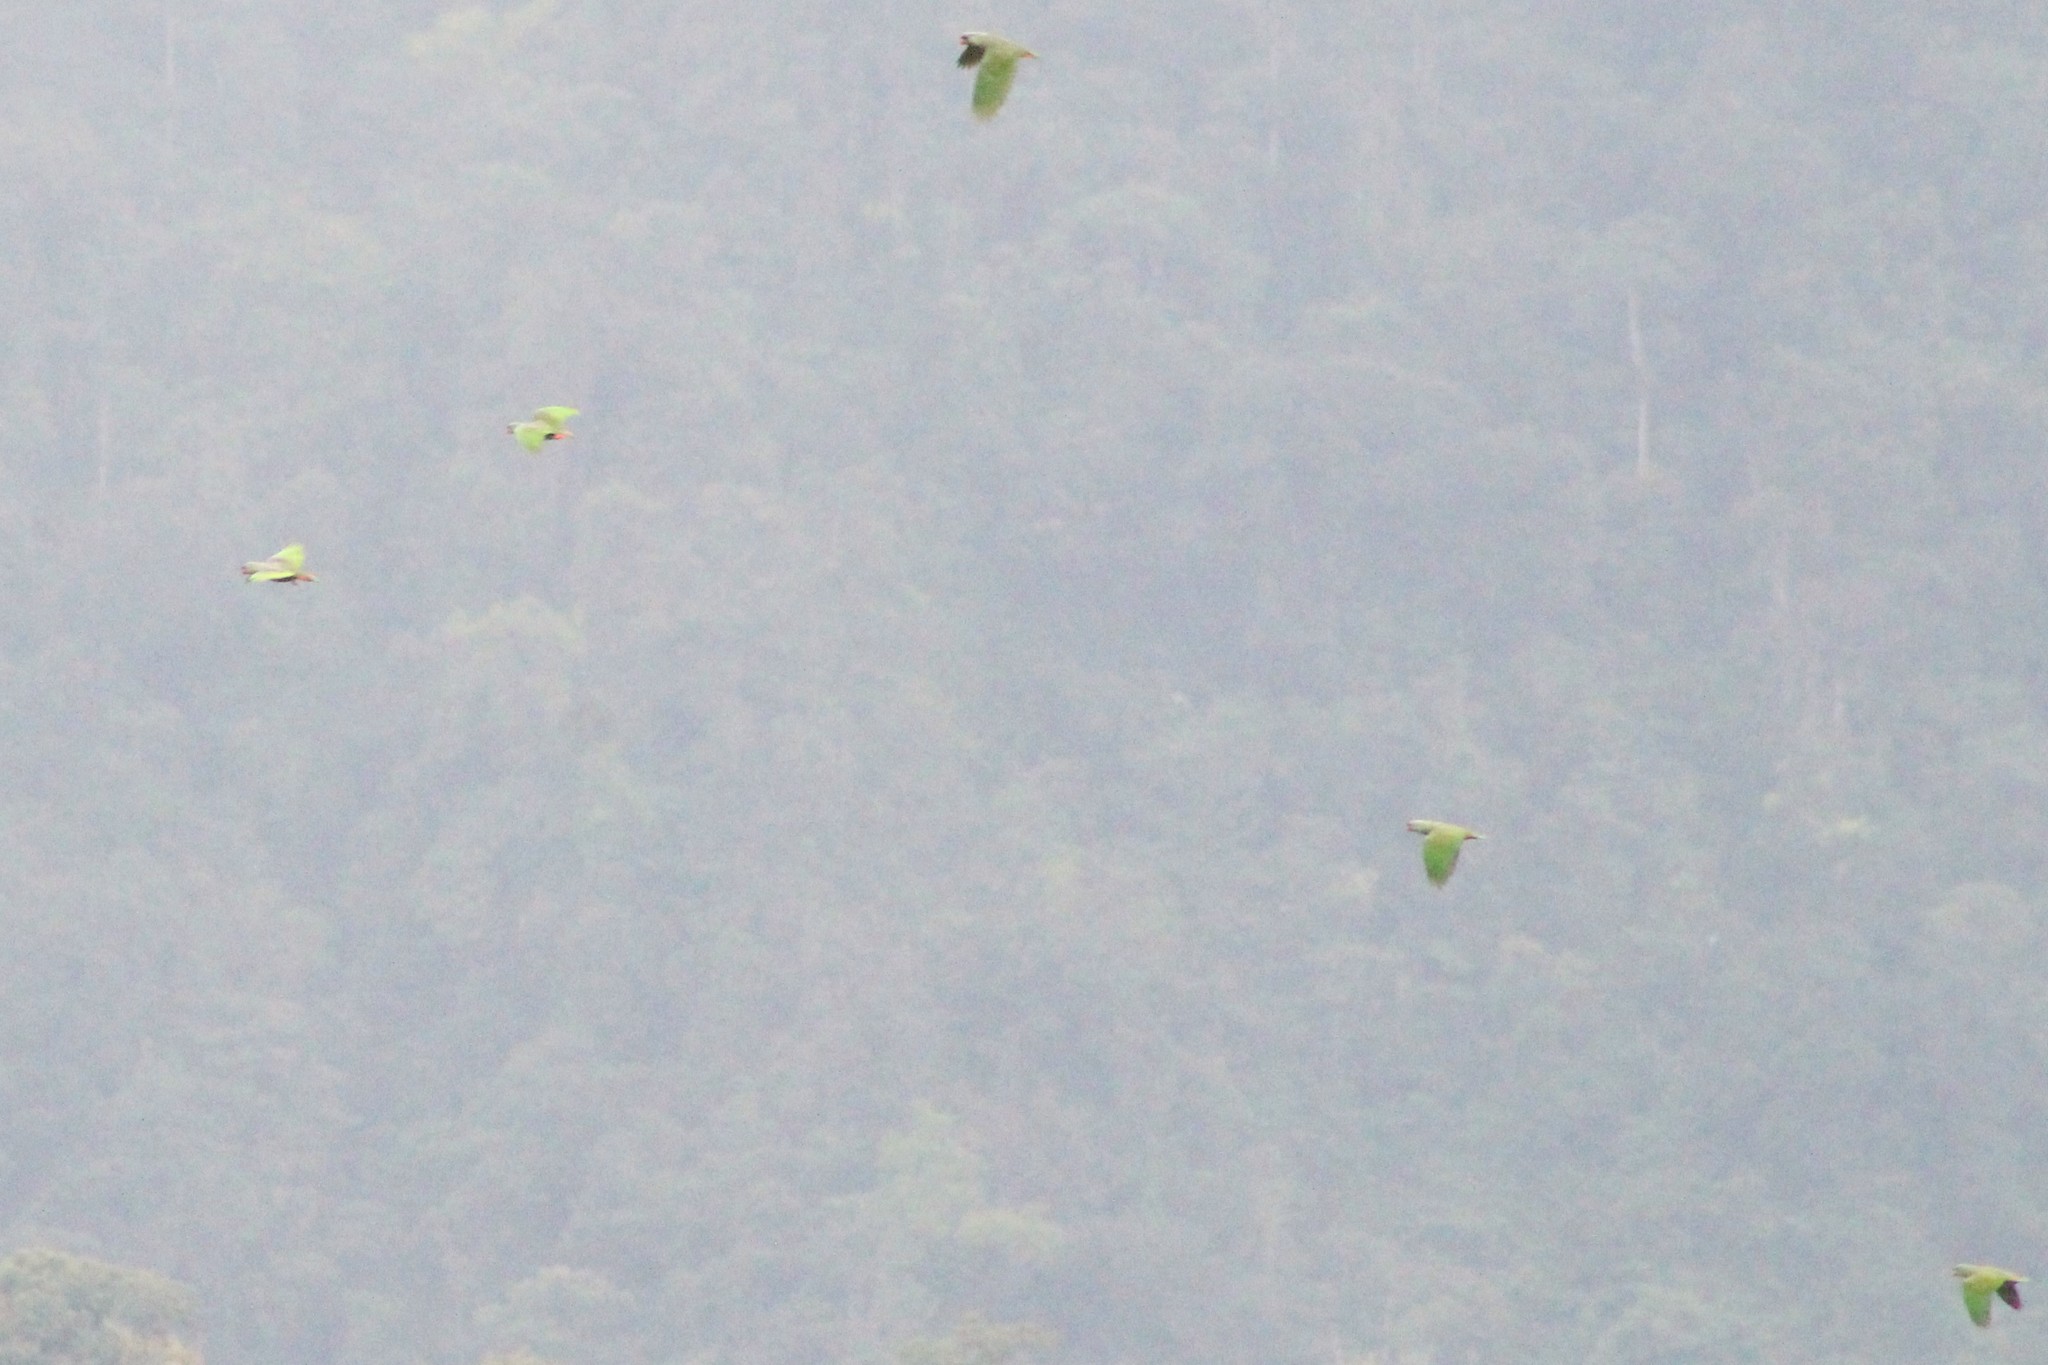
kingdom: Animalia
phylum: Chordata
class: Aves
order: Psittaciformes
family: Psittacidae
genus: Pionus
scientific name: Pionus sordidus
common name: Red-billed parrot
